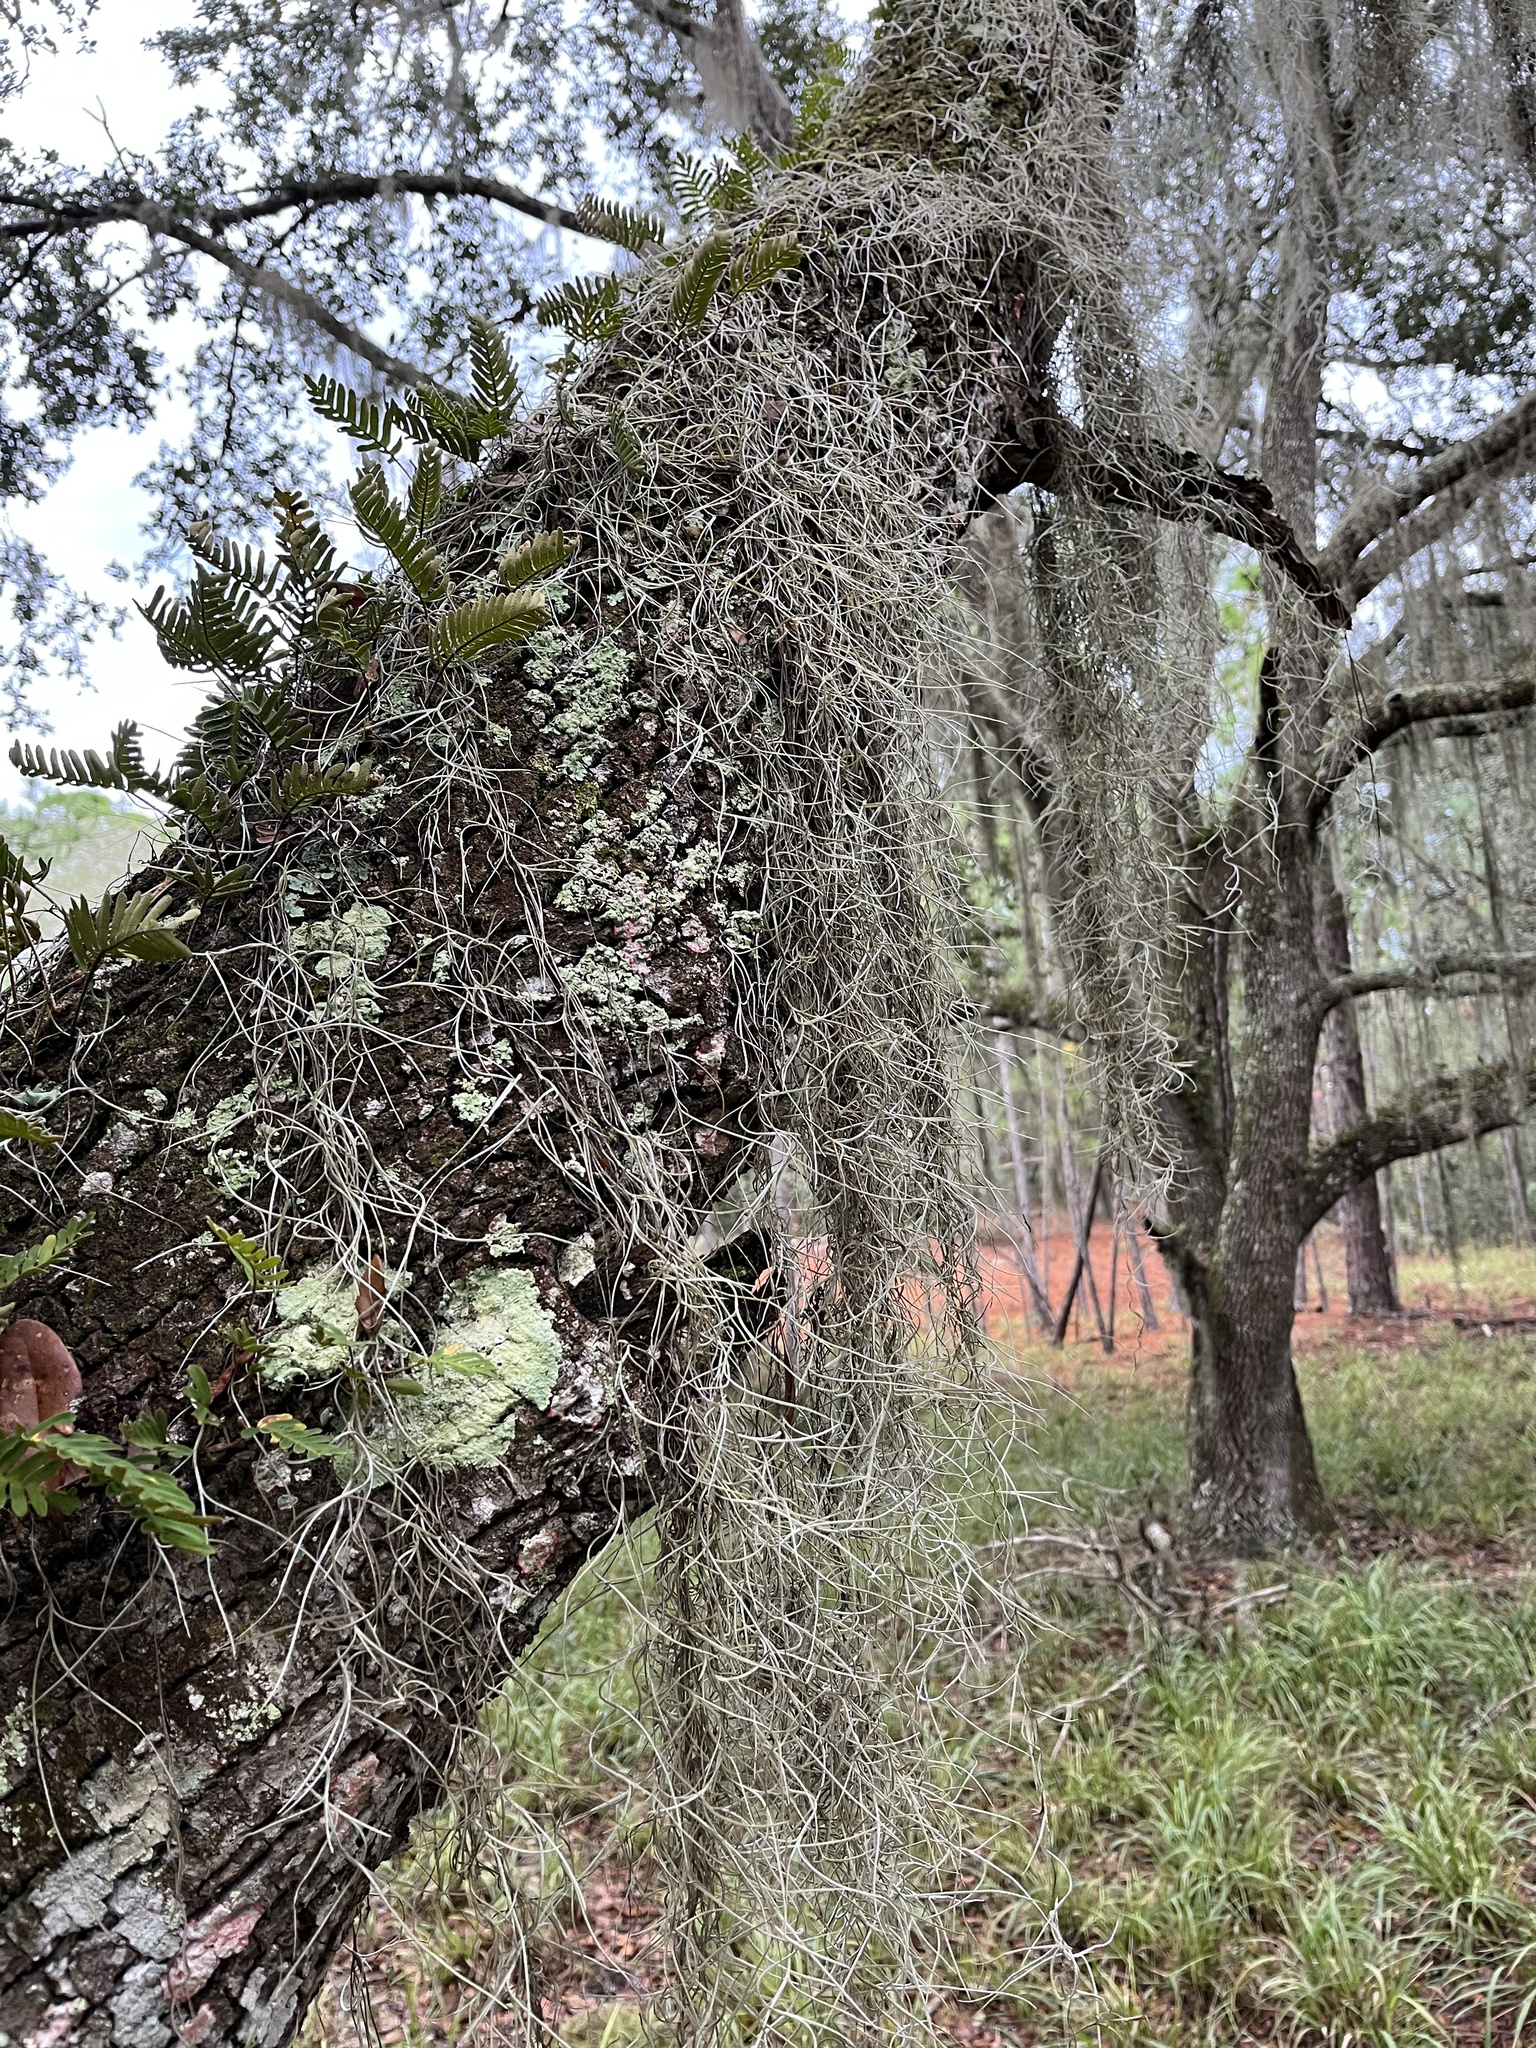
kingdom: Plantae
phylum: Tracheophyta
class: Liliopsida
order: Poales
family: Bromeliaceae
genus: Tillandsia
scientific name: Tillandsia usneoides
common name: Spanish moss
